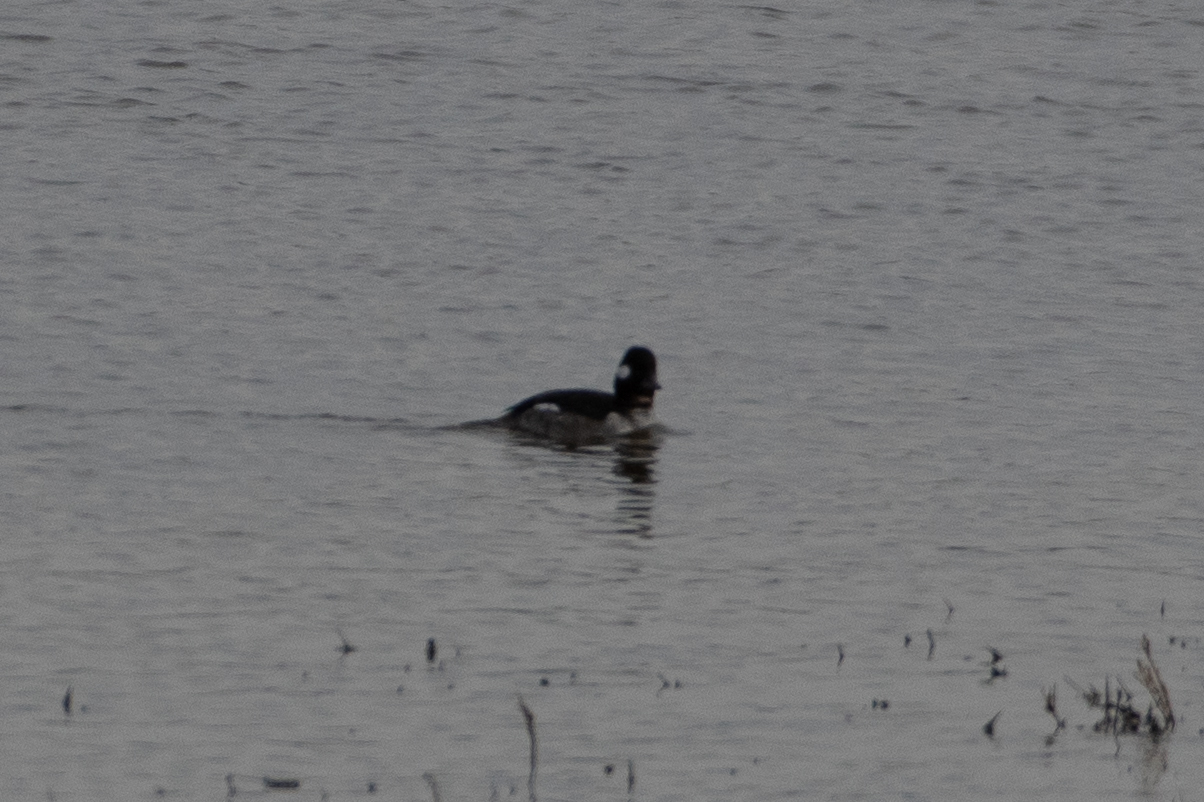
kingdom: Animalia
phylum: Chordata
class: Aves
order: Anseriformes
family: Anatidae
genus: Bucephala
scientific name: Bucephala albeola
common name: Bufflehead
